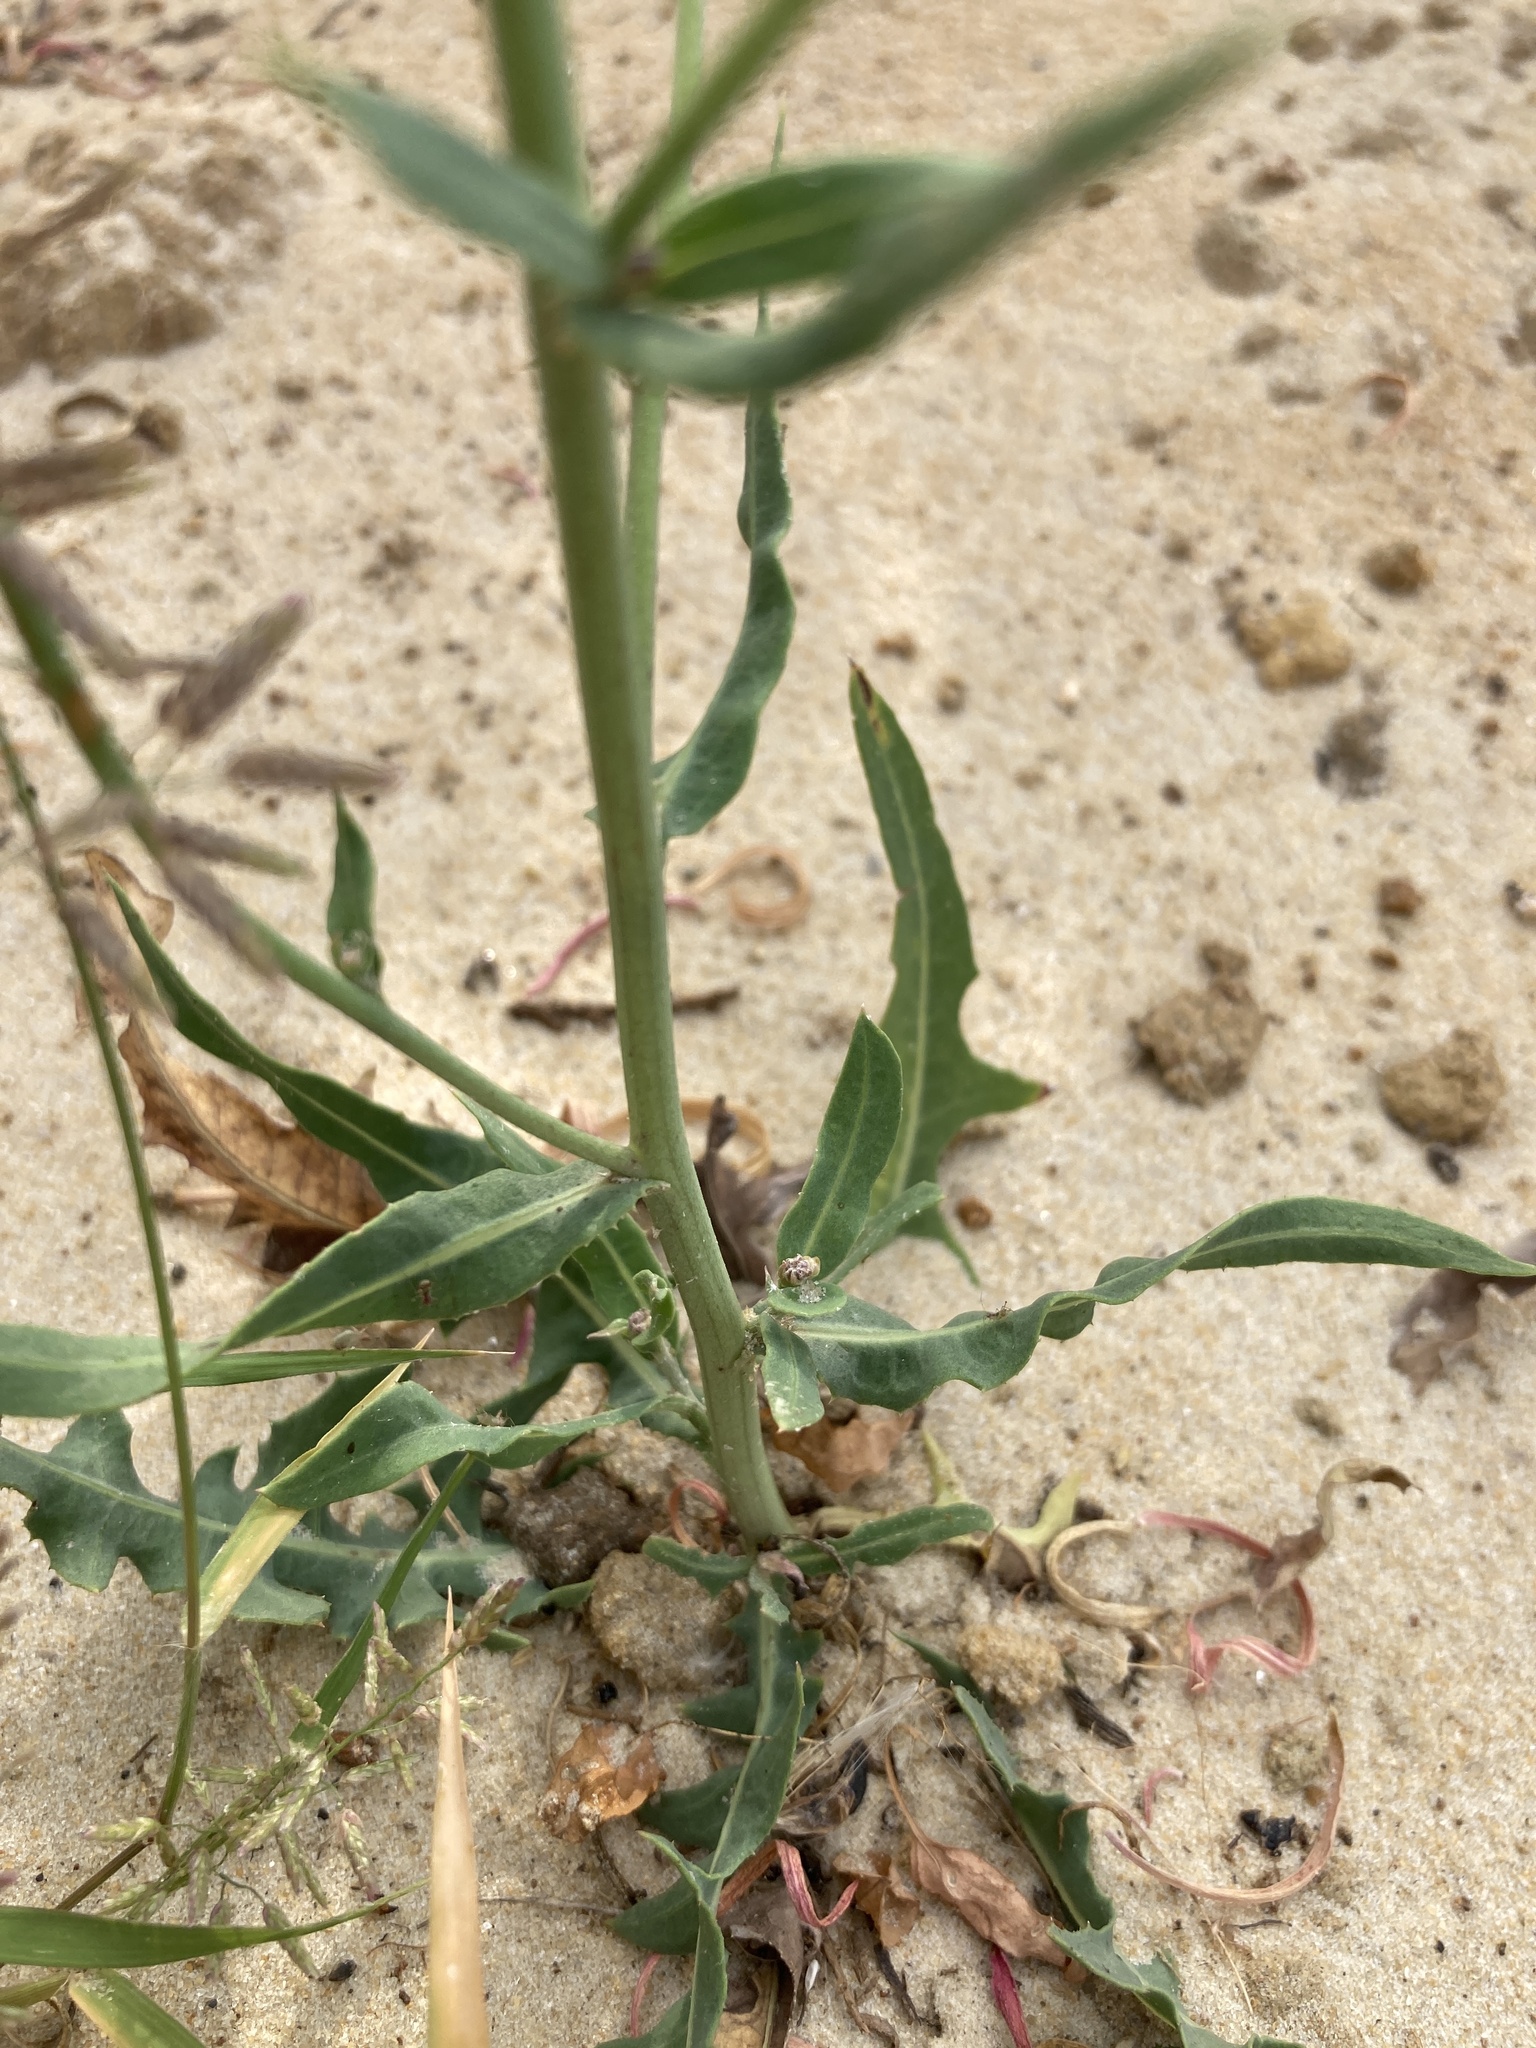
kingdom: Plantae
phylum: Tracheophyta
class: Magnoliopsida
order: Asterales
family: Asteraceae
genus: Lactuca
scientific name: Lactuca tatarica
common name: Blue lettuce
